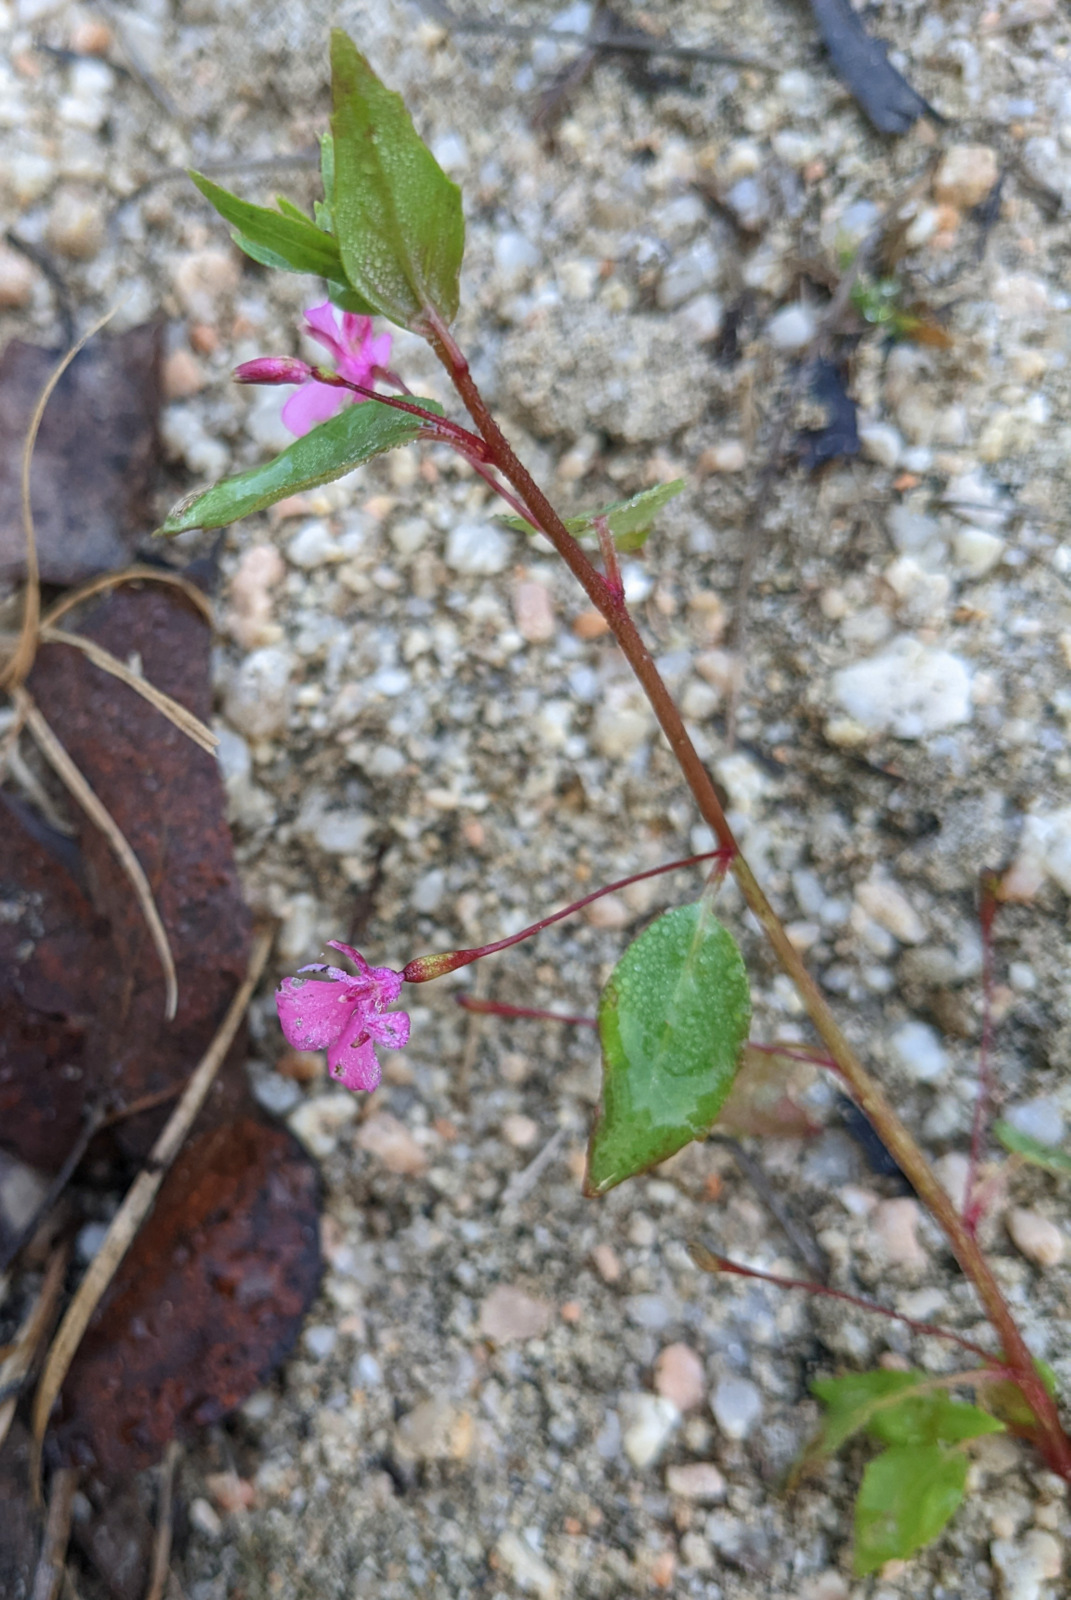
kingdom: Plantae
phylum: Tracheophyta
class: Magnoliopsida
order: Myrtales
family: Onagraceae
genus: Lopezia
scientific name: Lopezia clavata
